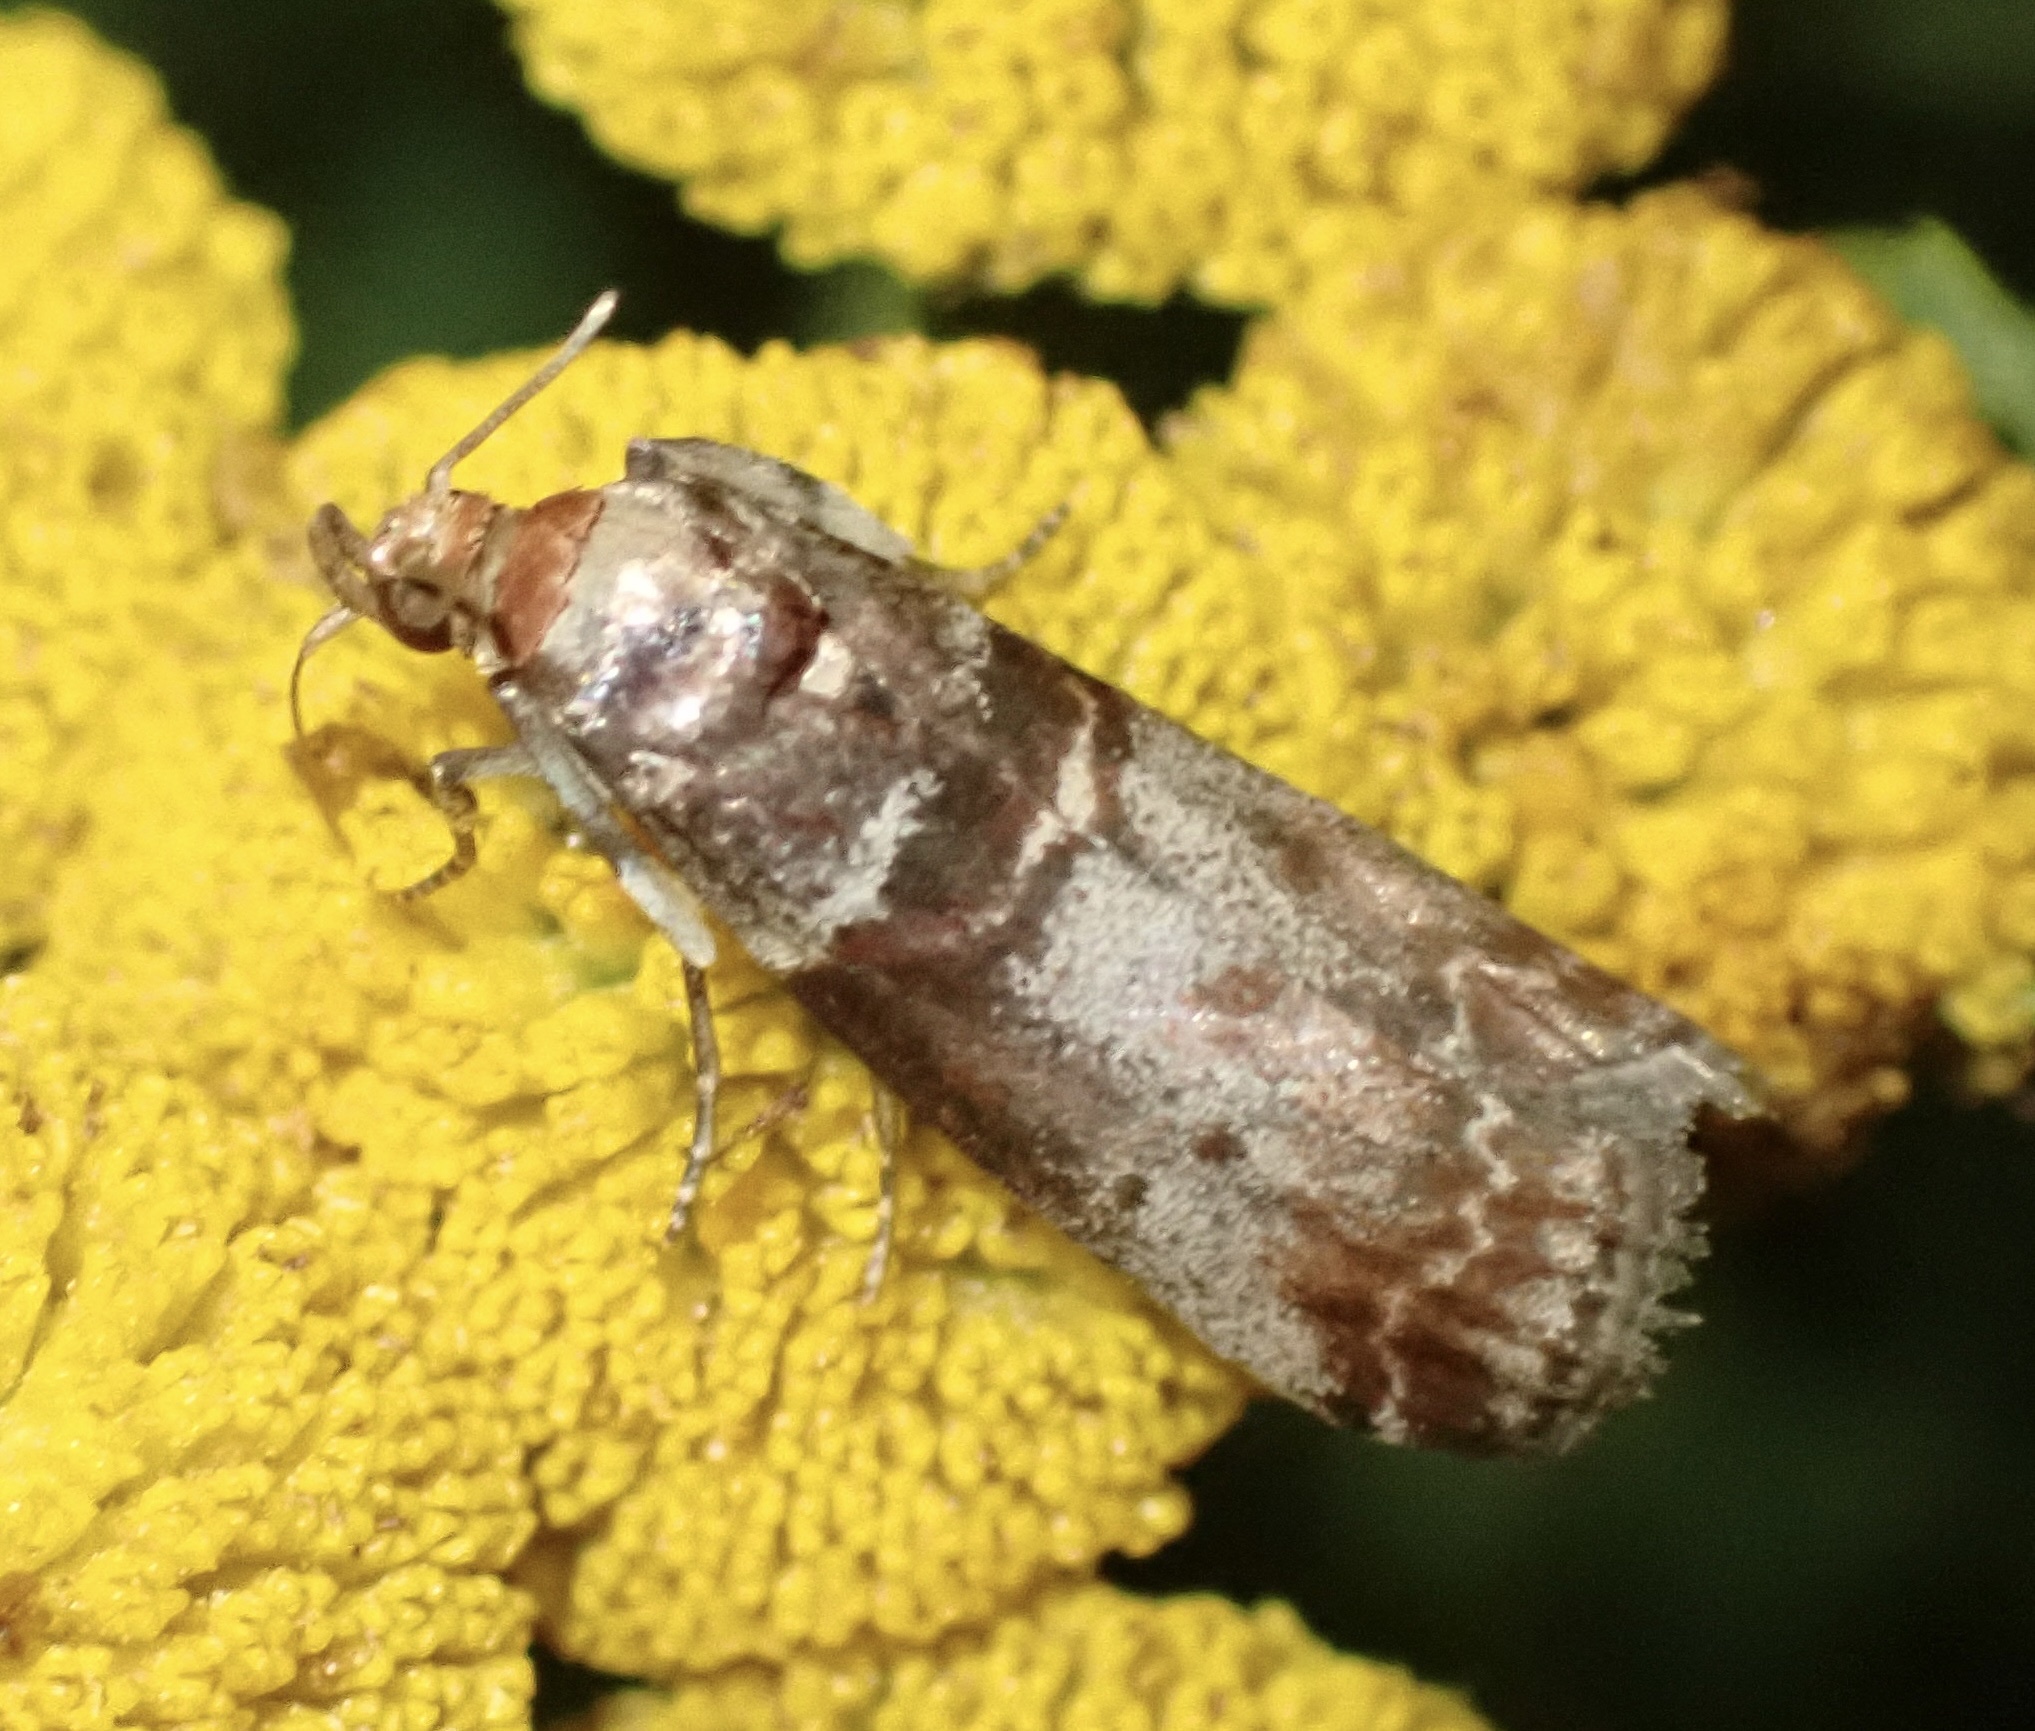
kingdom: Animalia
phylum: Arthropoda
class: Insecta
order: Lepidoptera
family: Pyralidae
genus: Acrobasis
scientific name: Acrobasis advenella
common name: Grey knot-horn
